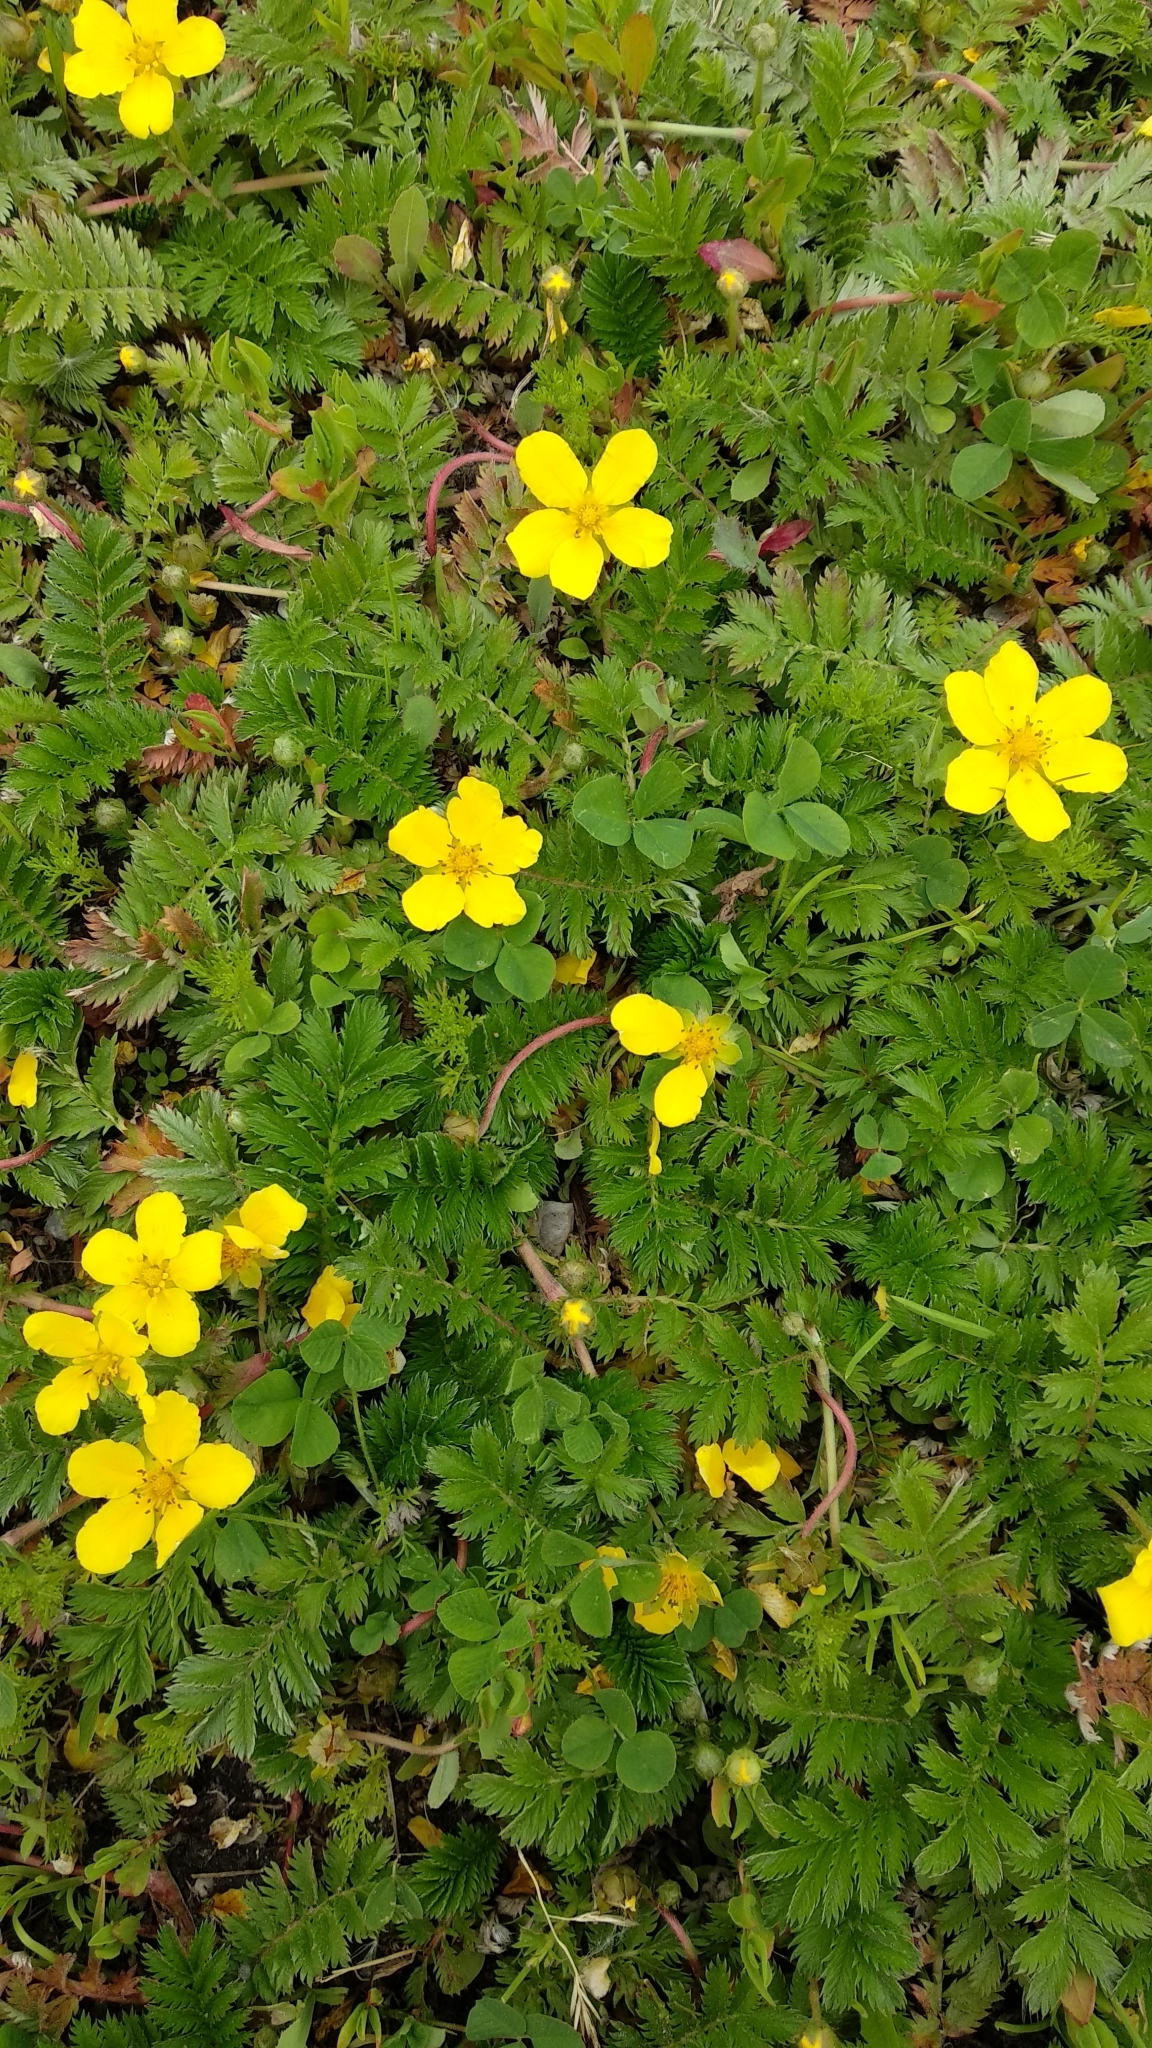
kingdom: Plantae
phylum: Tracheophyta
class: Magnoliopsida
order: Rosales
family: Rosaceae
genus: Argentina
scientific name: Argentina anserina
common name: Common silverweed
